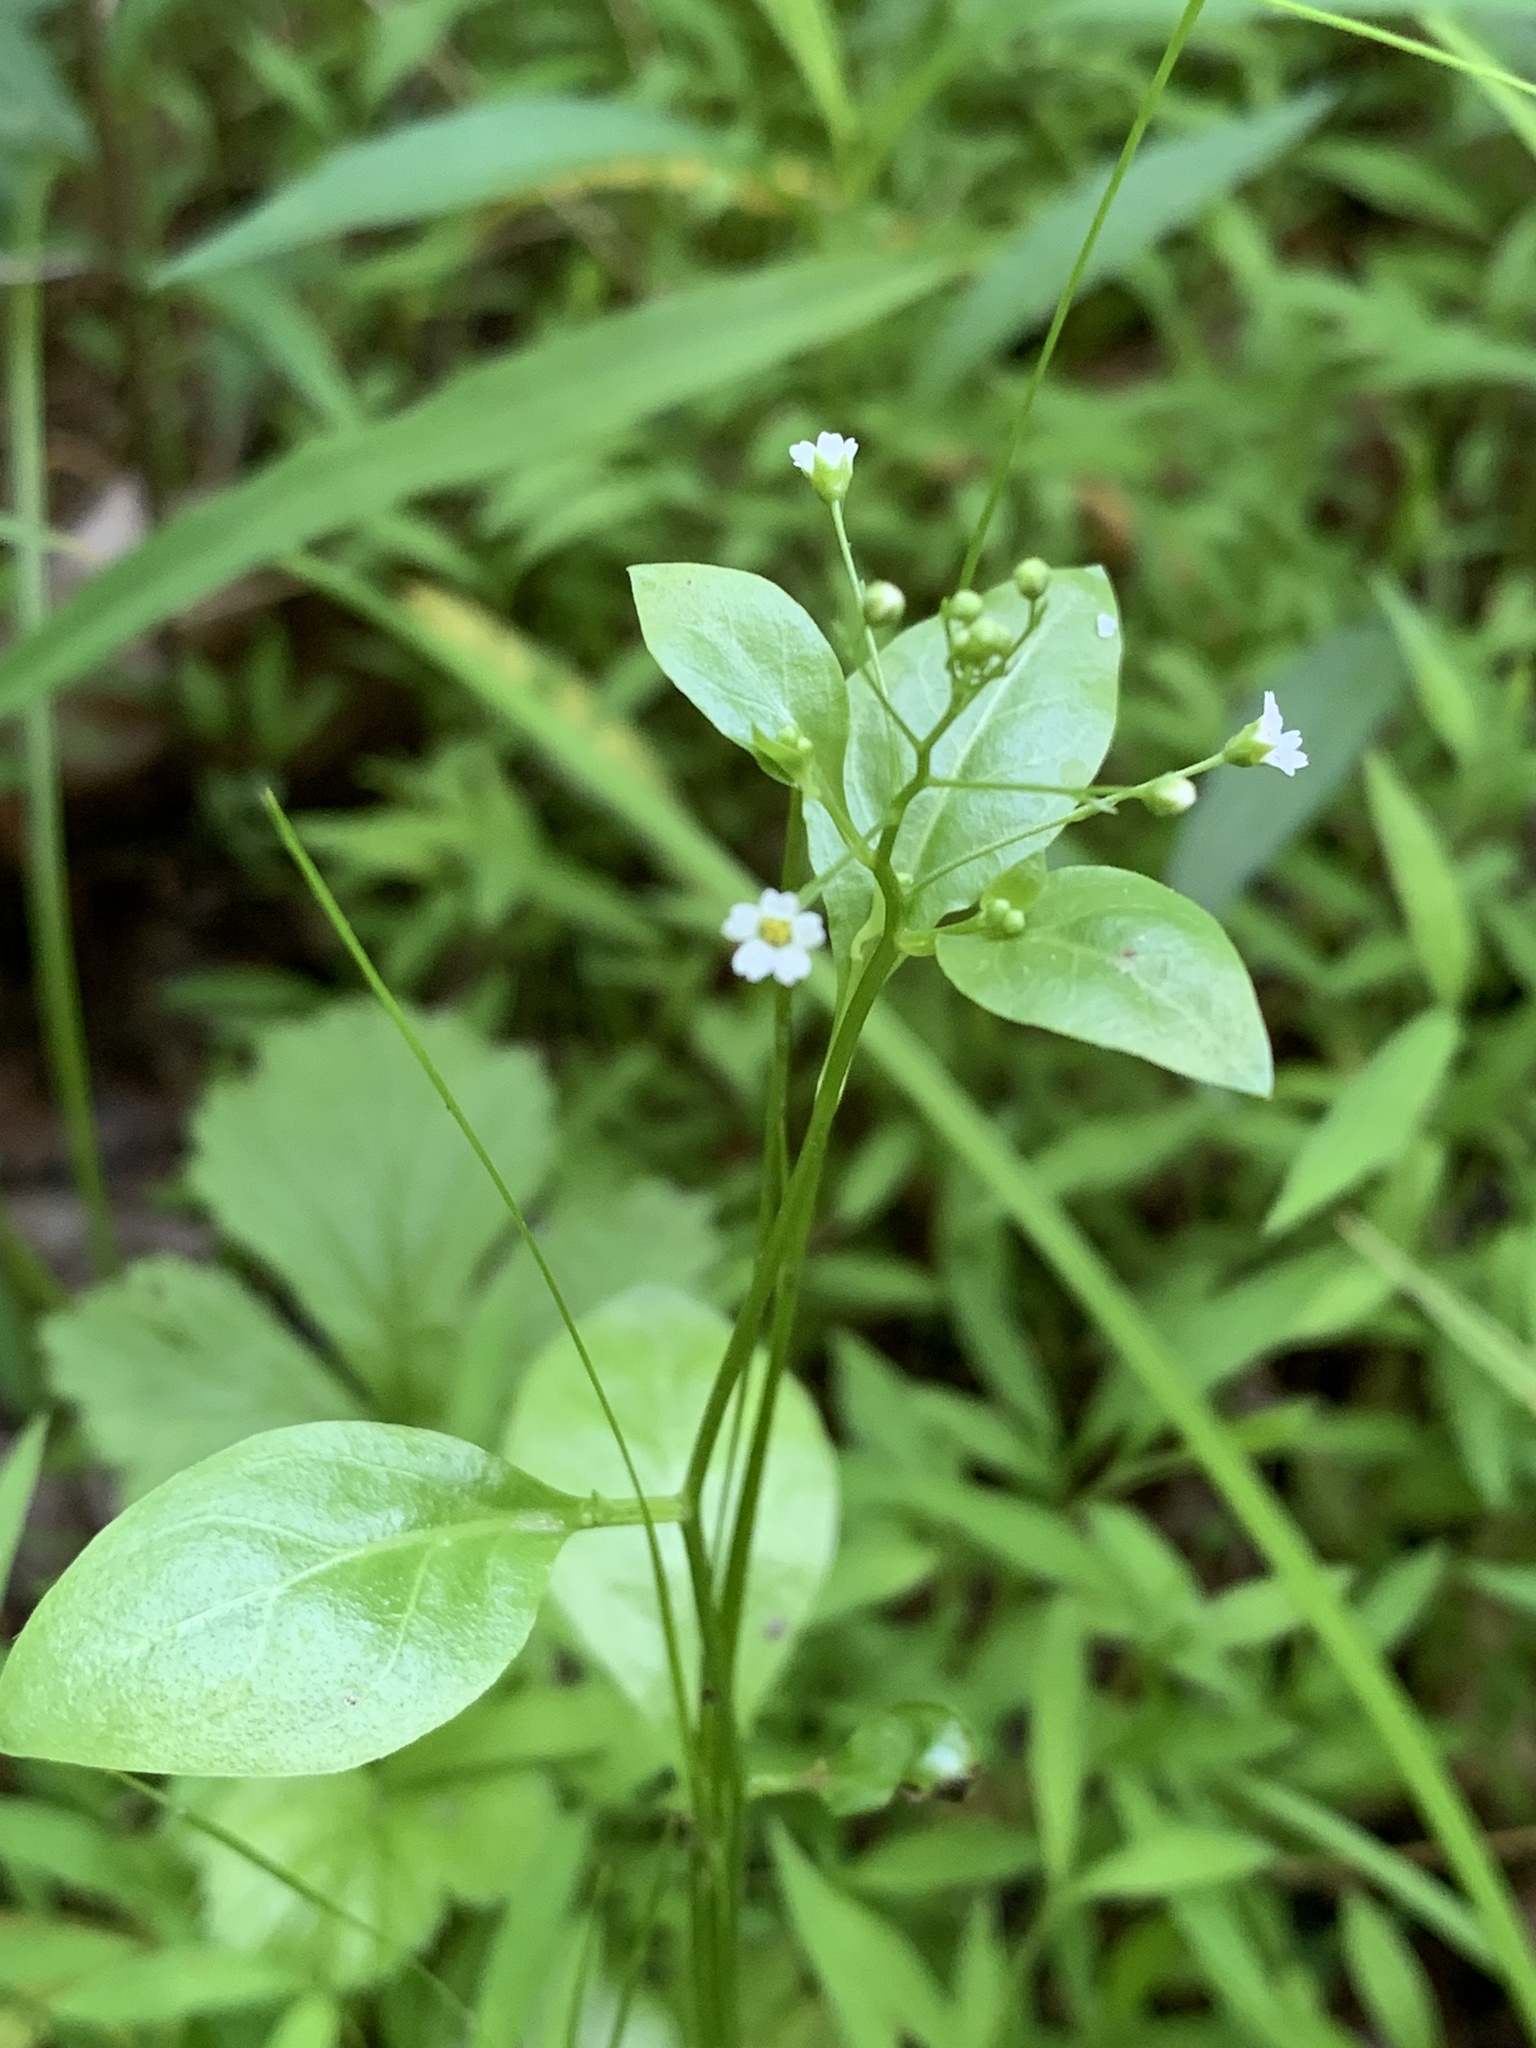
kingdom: Plantae
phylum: Tracheophyta
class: Magnoliopsida
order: Ericales
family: Primulaceae
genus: Samolus
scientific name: Samolus parviflorus
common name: False water pimpernel
